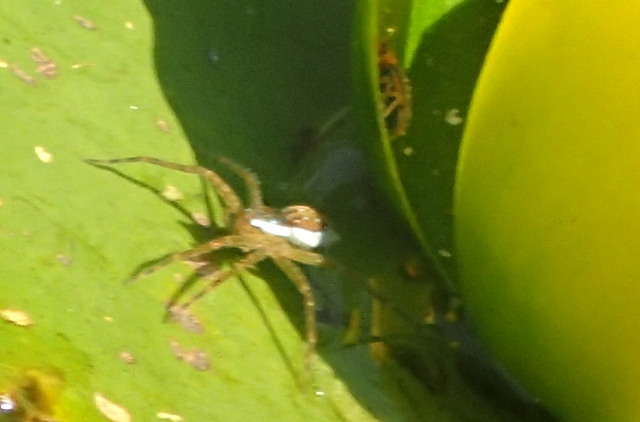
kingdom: Animalia
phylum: Arthropoda
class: Arachnida
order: Araneae
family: Pisauridae
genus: Dolomedes
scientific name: Dolomedes triton
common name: Six-spotted fishing spider
